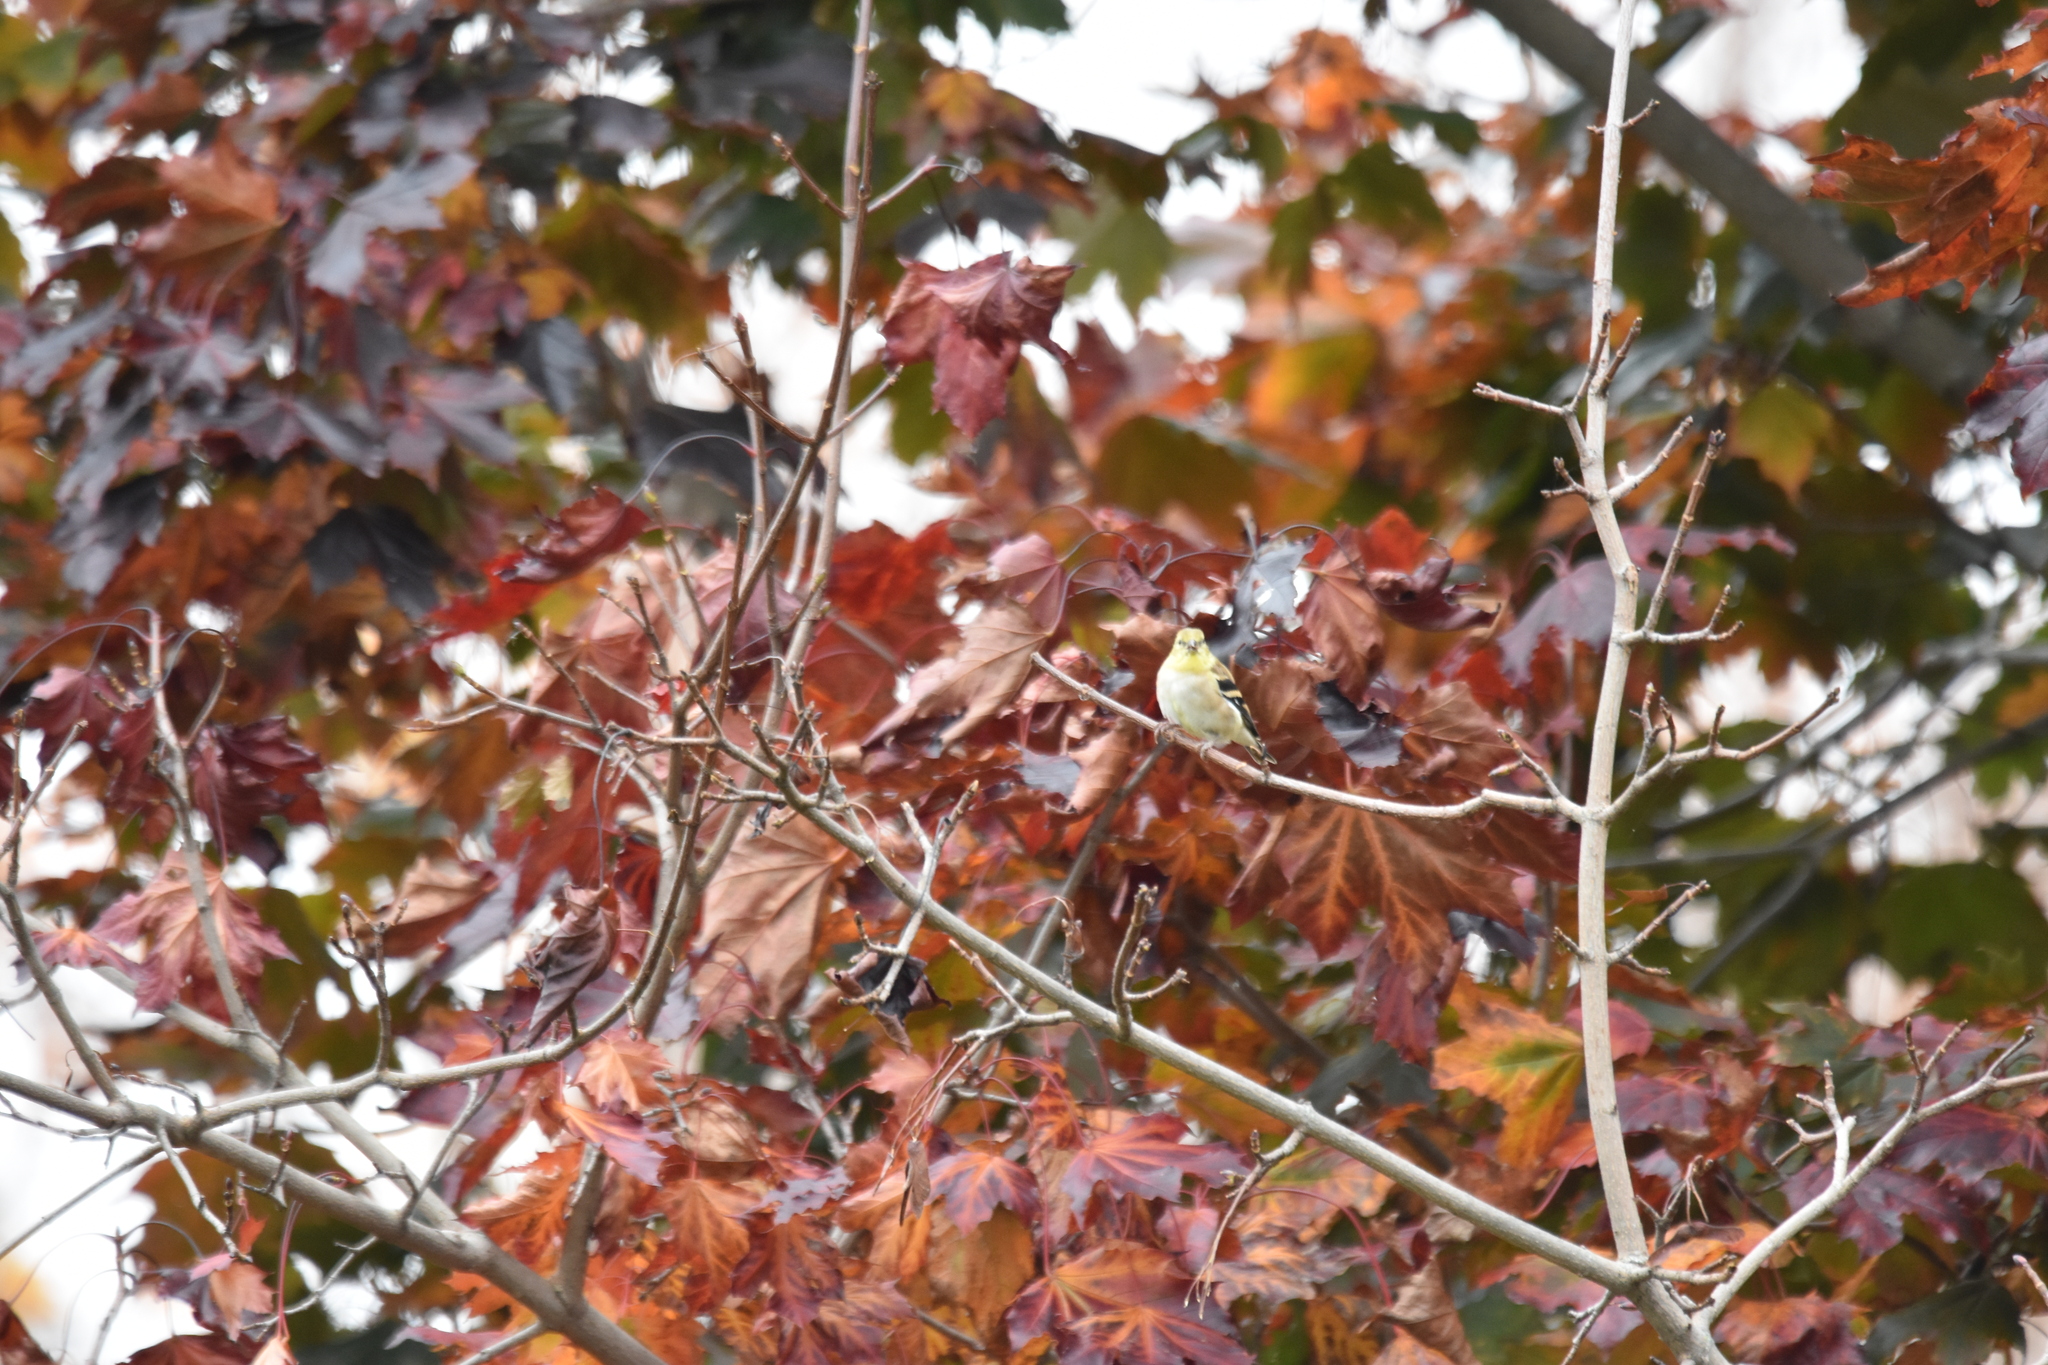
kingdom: Animalia
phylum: Chordata
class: Aves
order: Passeriformes
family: Fringillidae
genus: Spinus
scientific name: Spinus tristis
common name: American goldfinch
